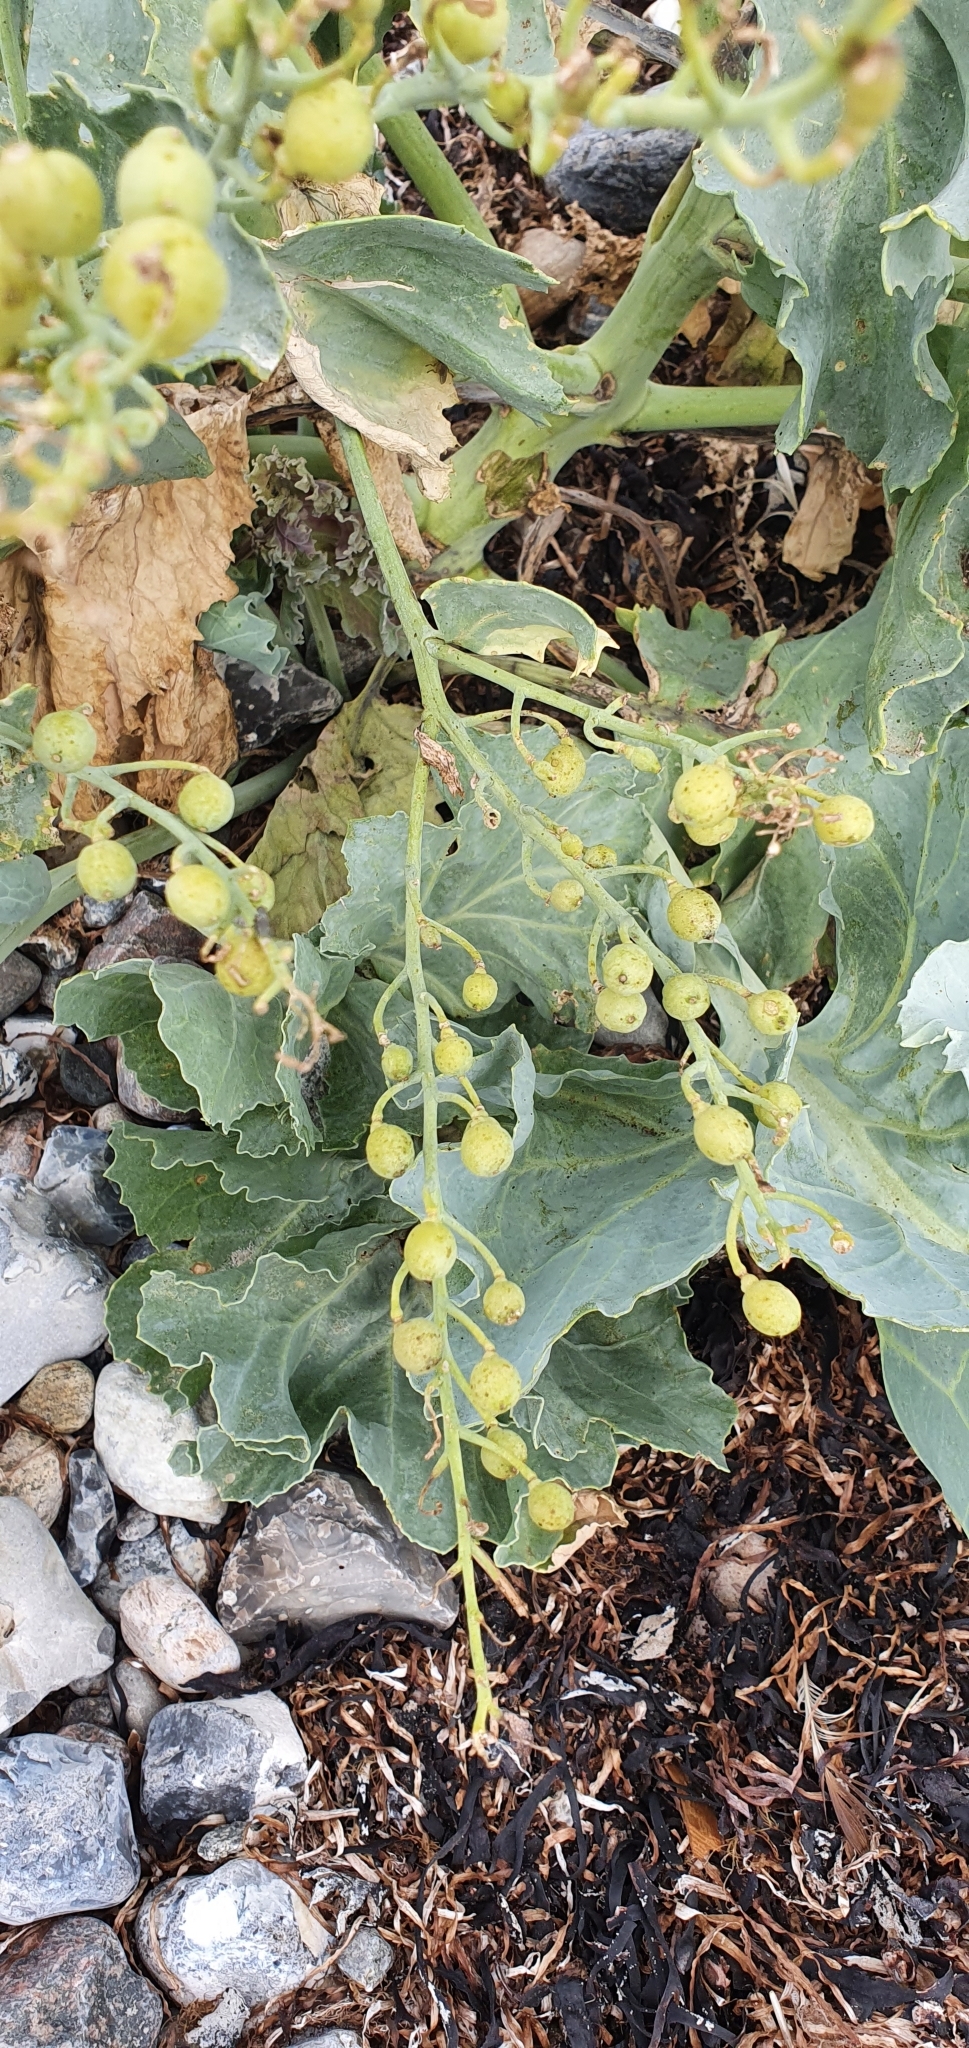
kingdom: Plantae
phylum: Tracheophyta
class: Magnoliopsida
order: Brassicales
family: Brassicaceae
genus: Crambe
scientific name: Crambe maritima
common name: Sea-kale
